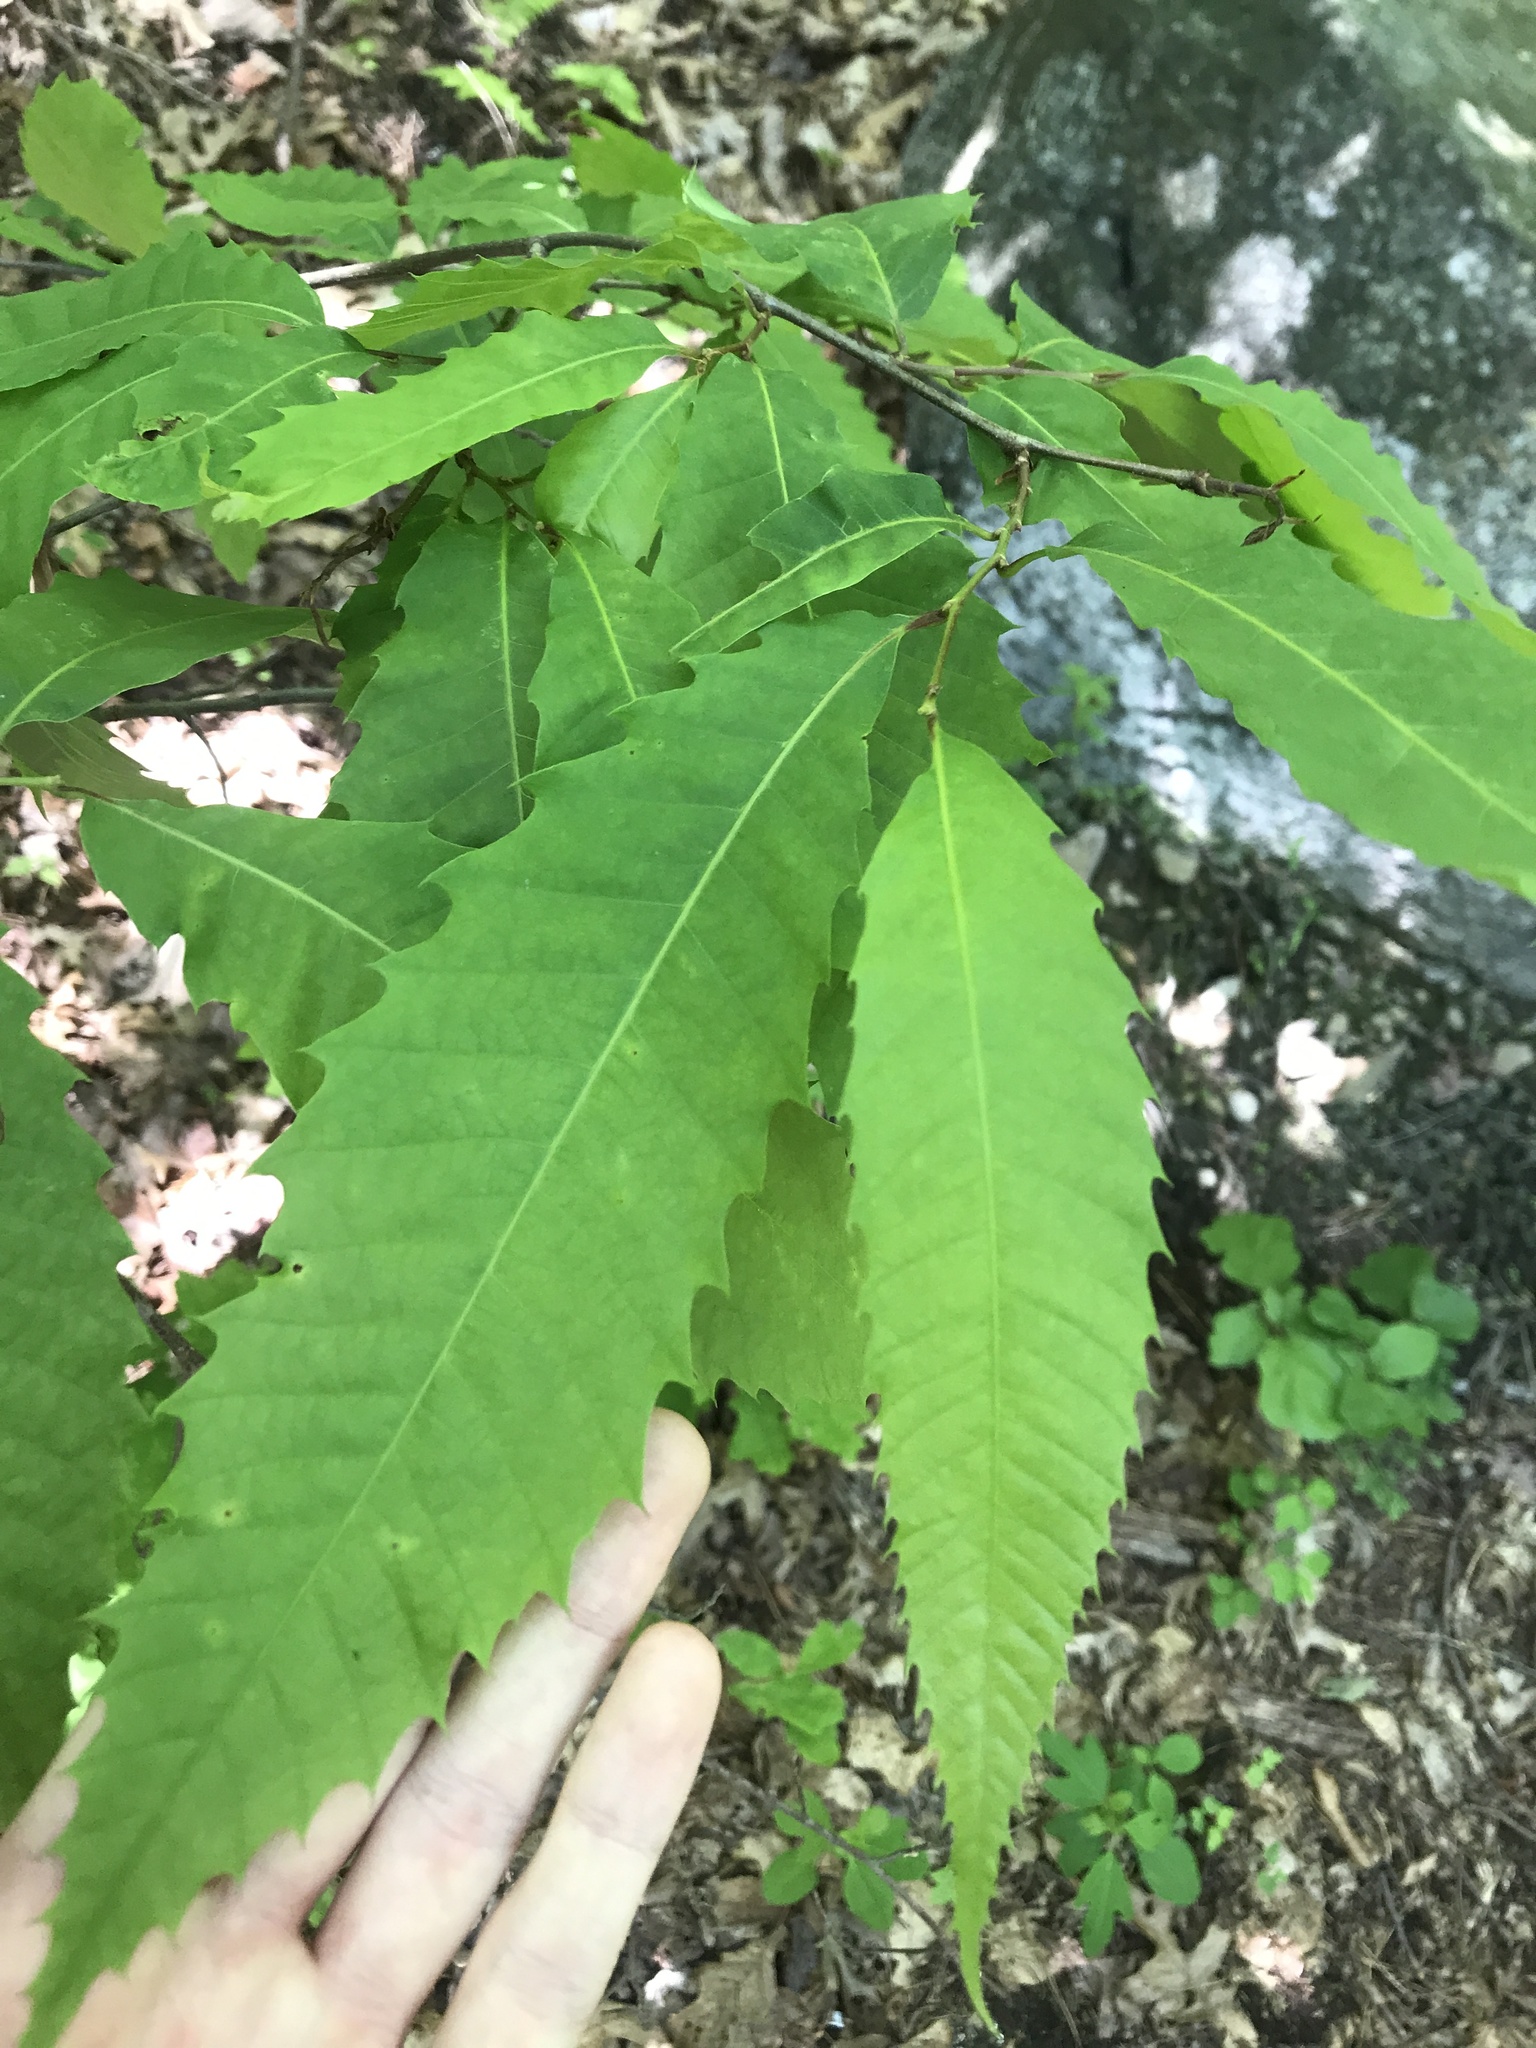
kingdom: Plantae
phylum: Tracheophyta
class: Magnoliopsida
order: Fagales
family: Fagaceae
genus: Castanea
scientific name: Castanea dentata
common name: American chestnut
